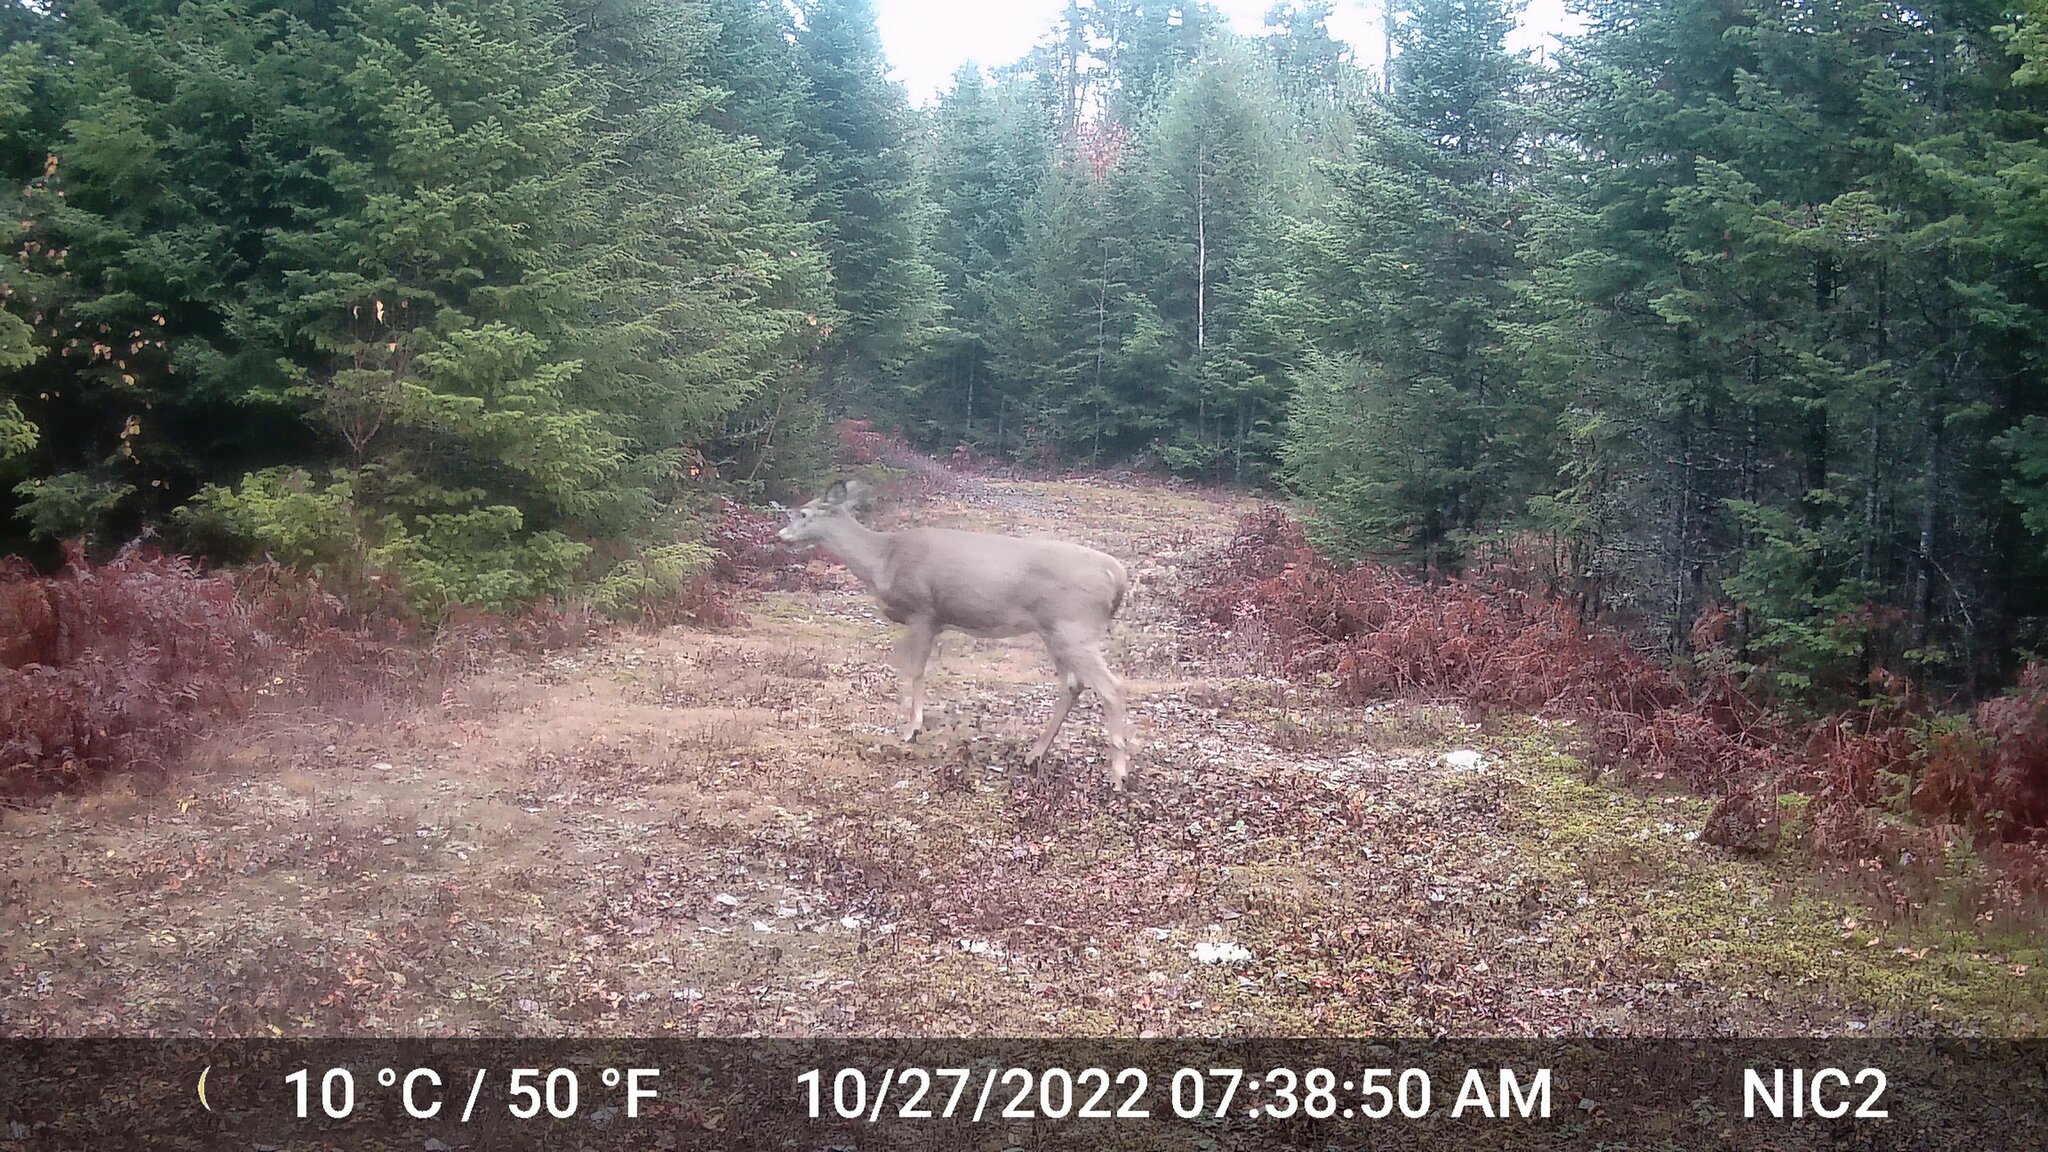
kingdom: Animalia
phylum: Chordata
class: Mammalia
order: Artiodactyla
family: Cervidae
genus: Odocoileus
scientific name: Odocoileus virginianus
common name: White-tailed deer
